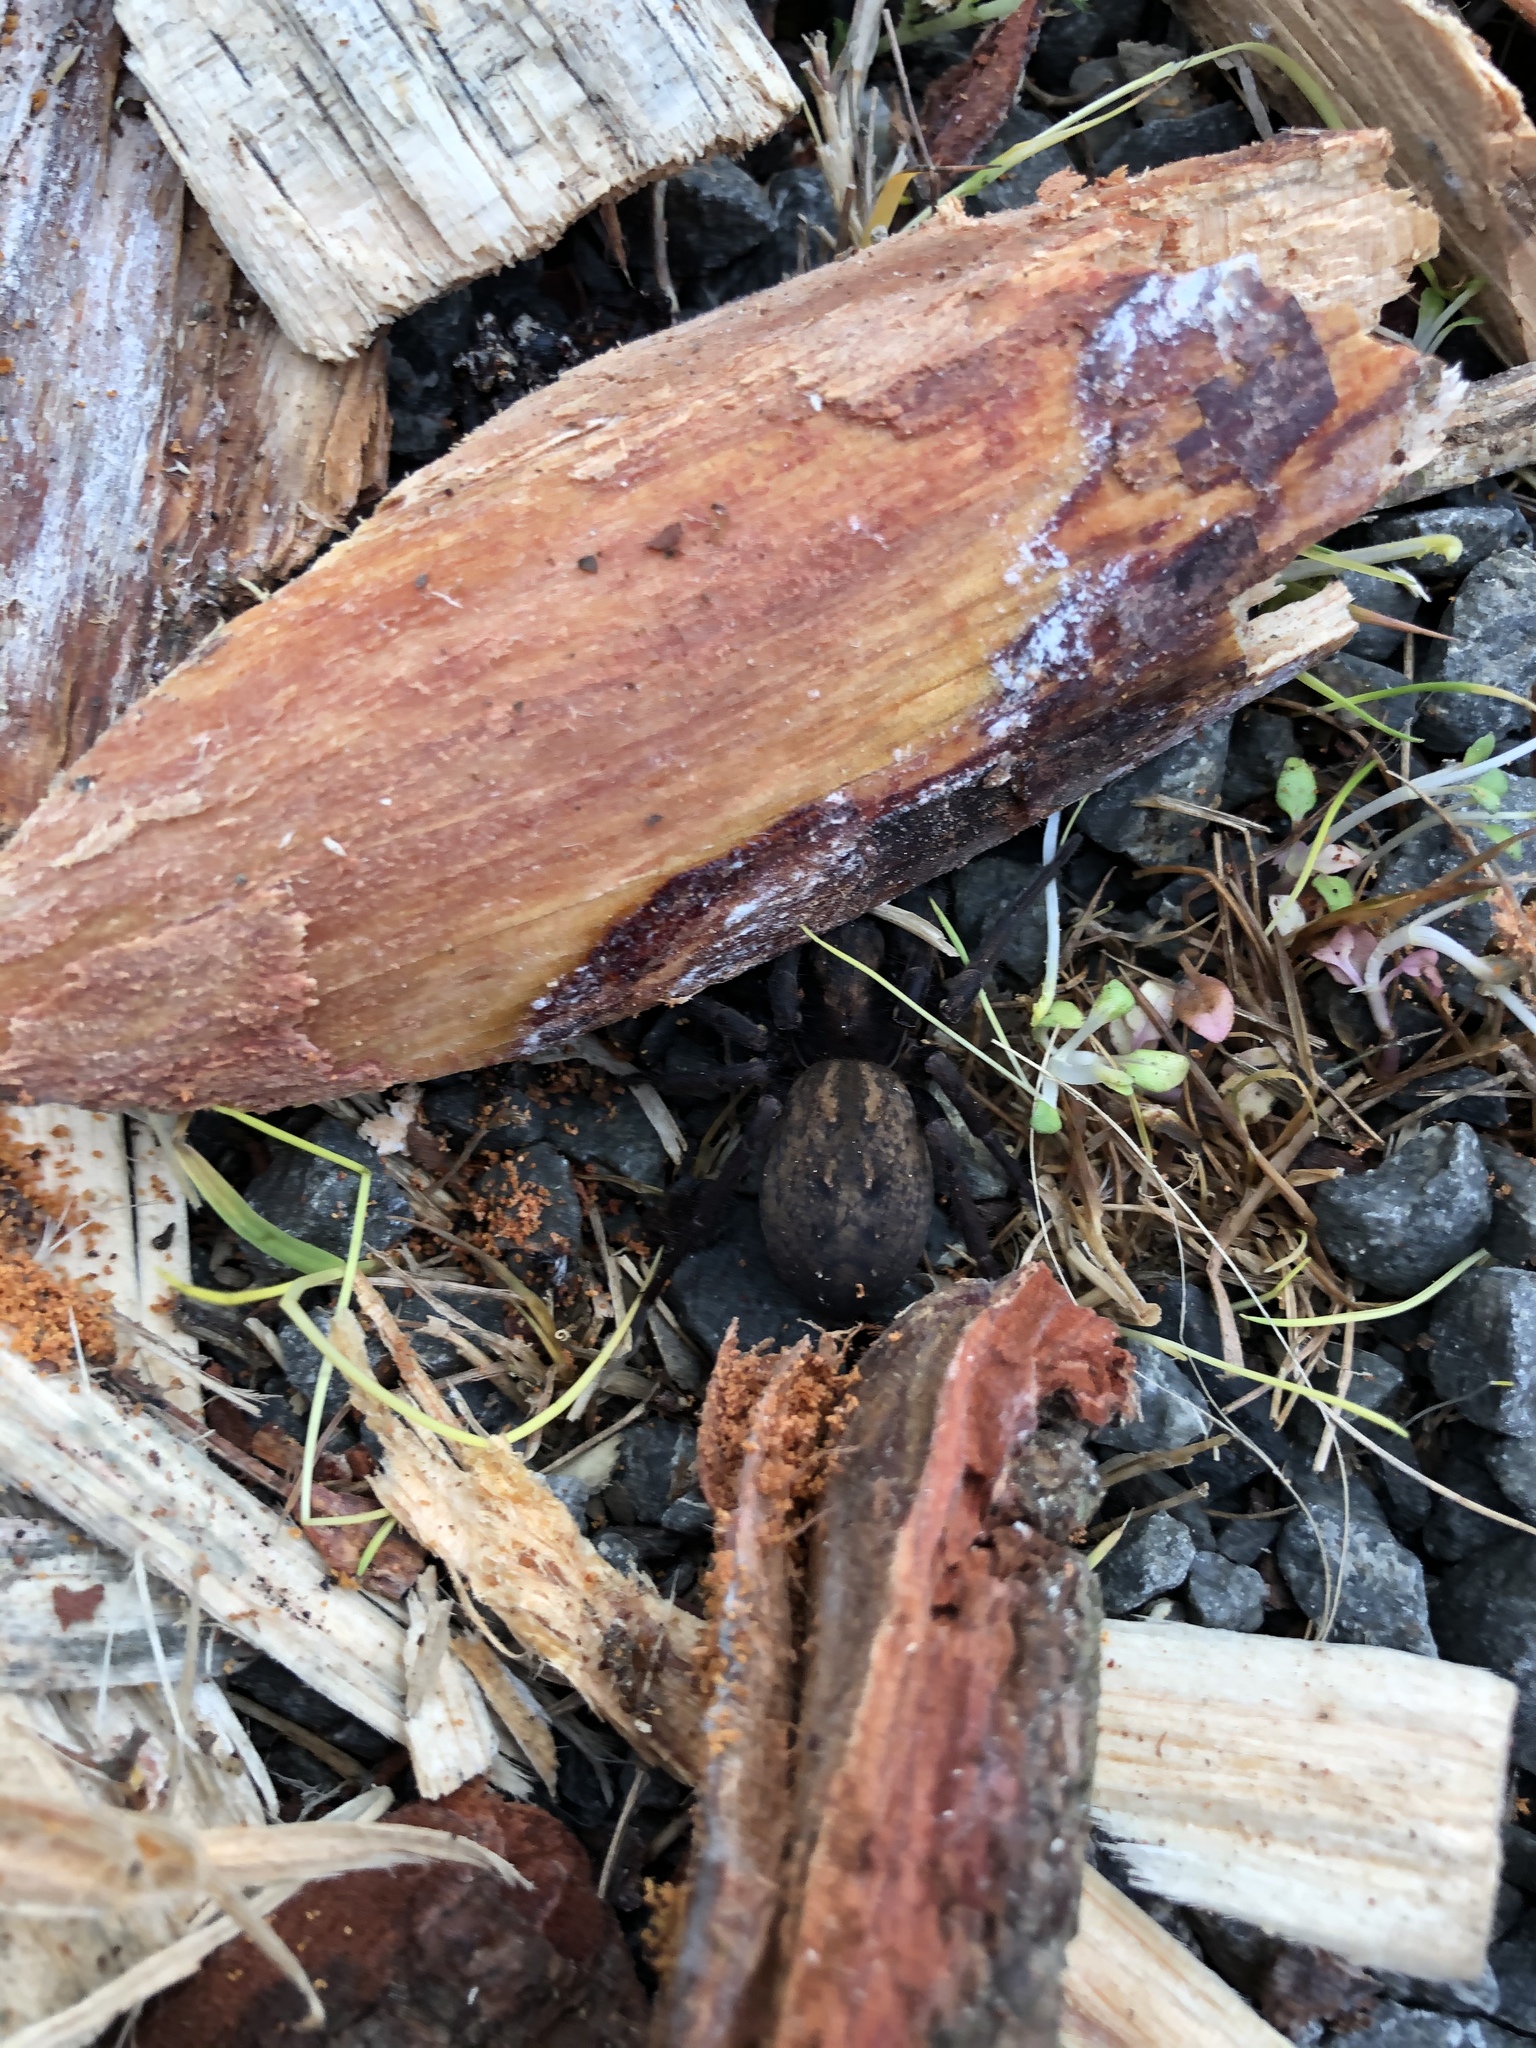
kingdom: Animalia
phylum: Arthropoda
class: Arachnida
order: Araneae
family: Zoropsidae
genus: Uliodon
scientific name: Uliodon albopunctatus
